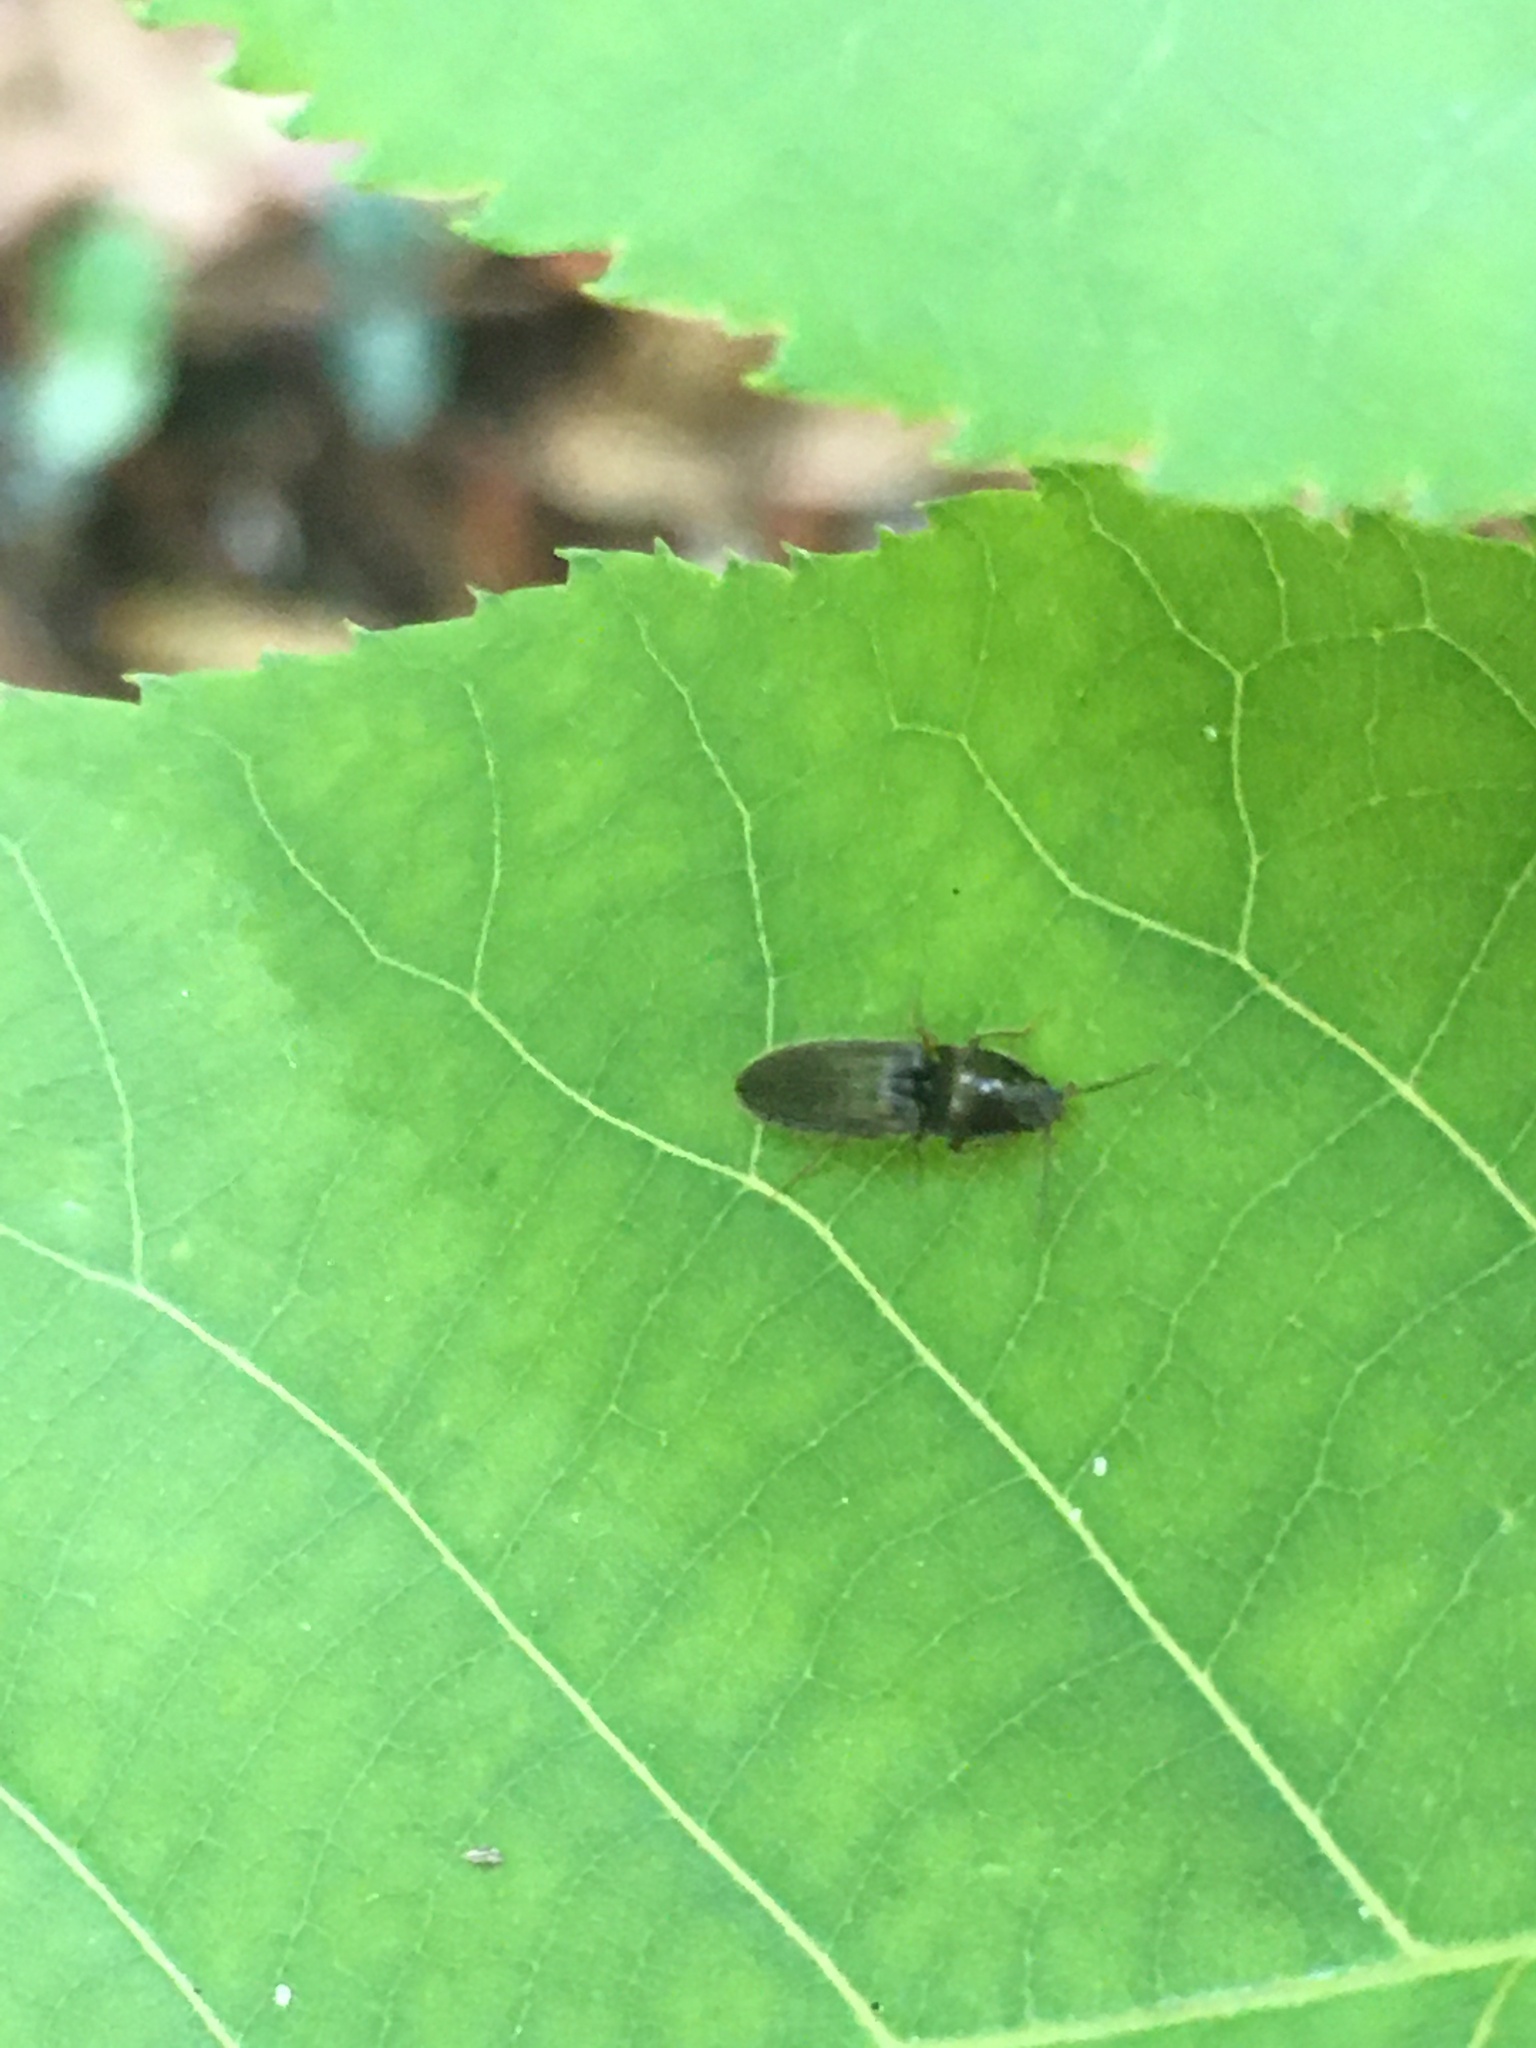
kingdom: Animalia
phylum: Arthropoda
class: Insecta
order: Coleoptera
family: Elateridae
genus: Limonius
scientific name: Limonius quercinus
